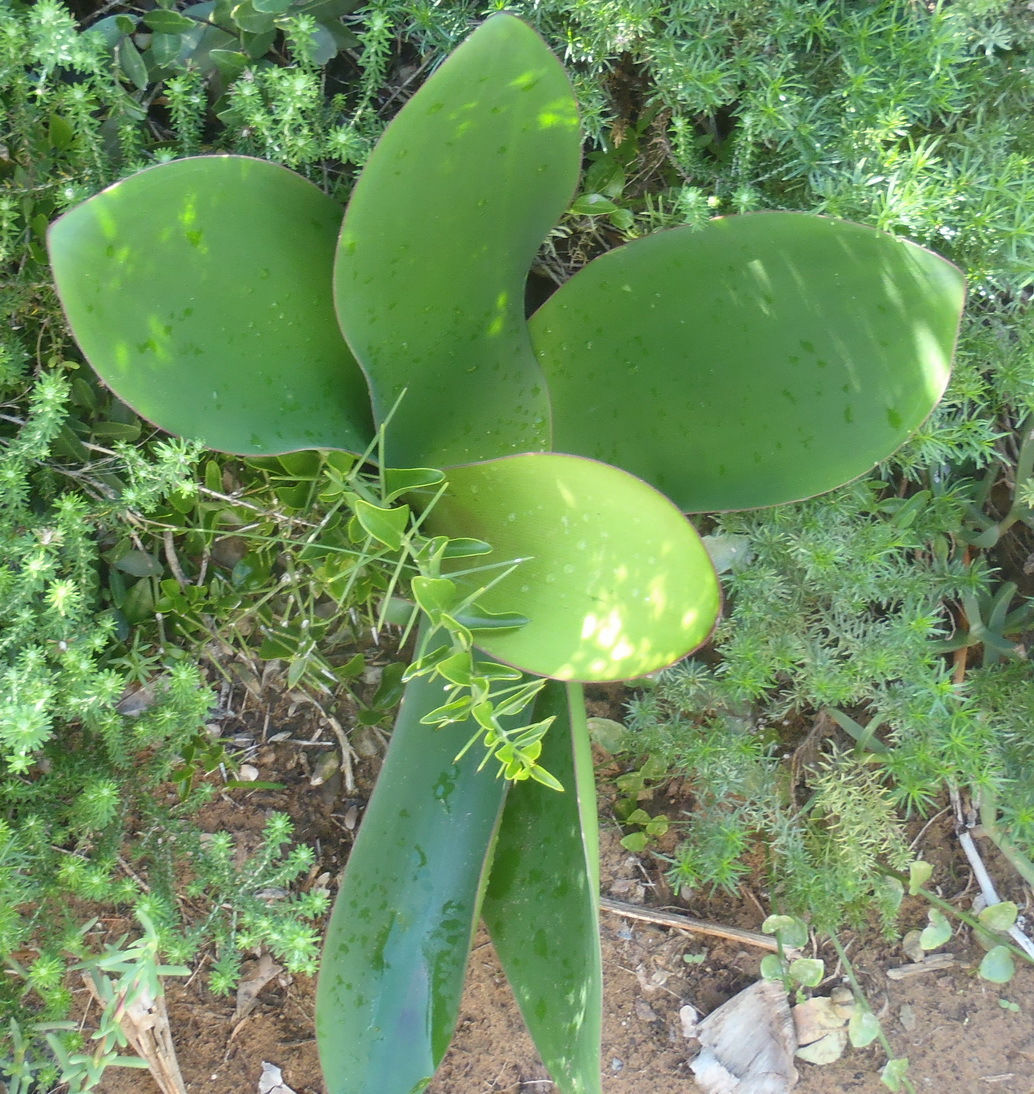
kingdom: Plantae
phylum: Tracheophyta
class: Liliopsida
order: Asparagales
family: Amaryllidaceae
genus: Brunsvigia
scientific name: Brunsvigia orientalis
